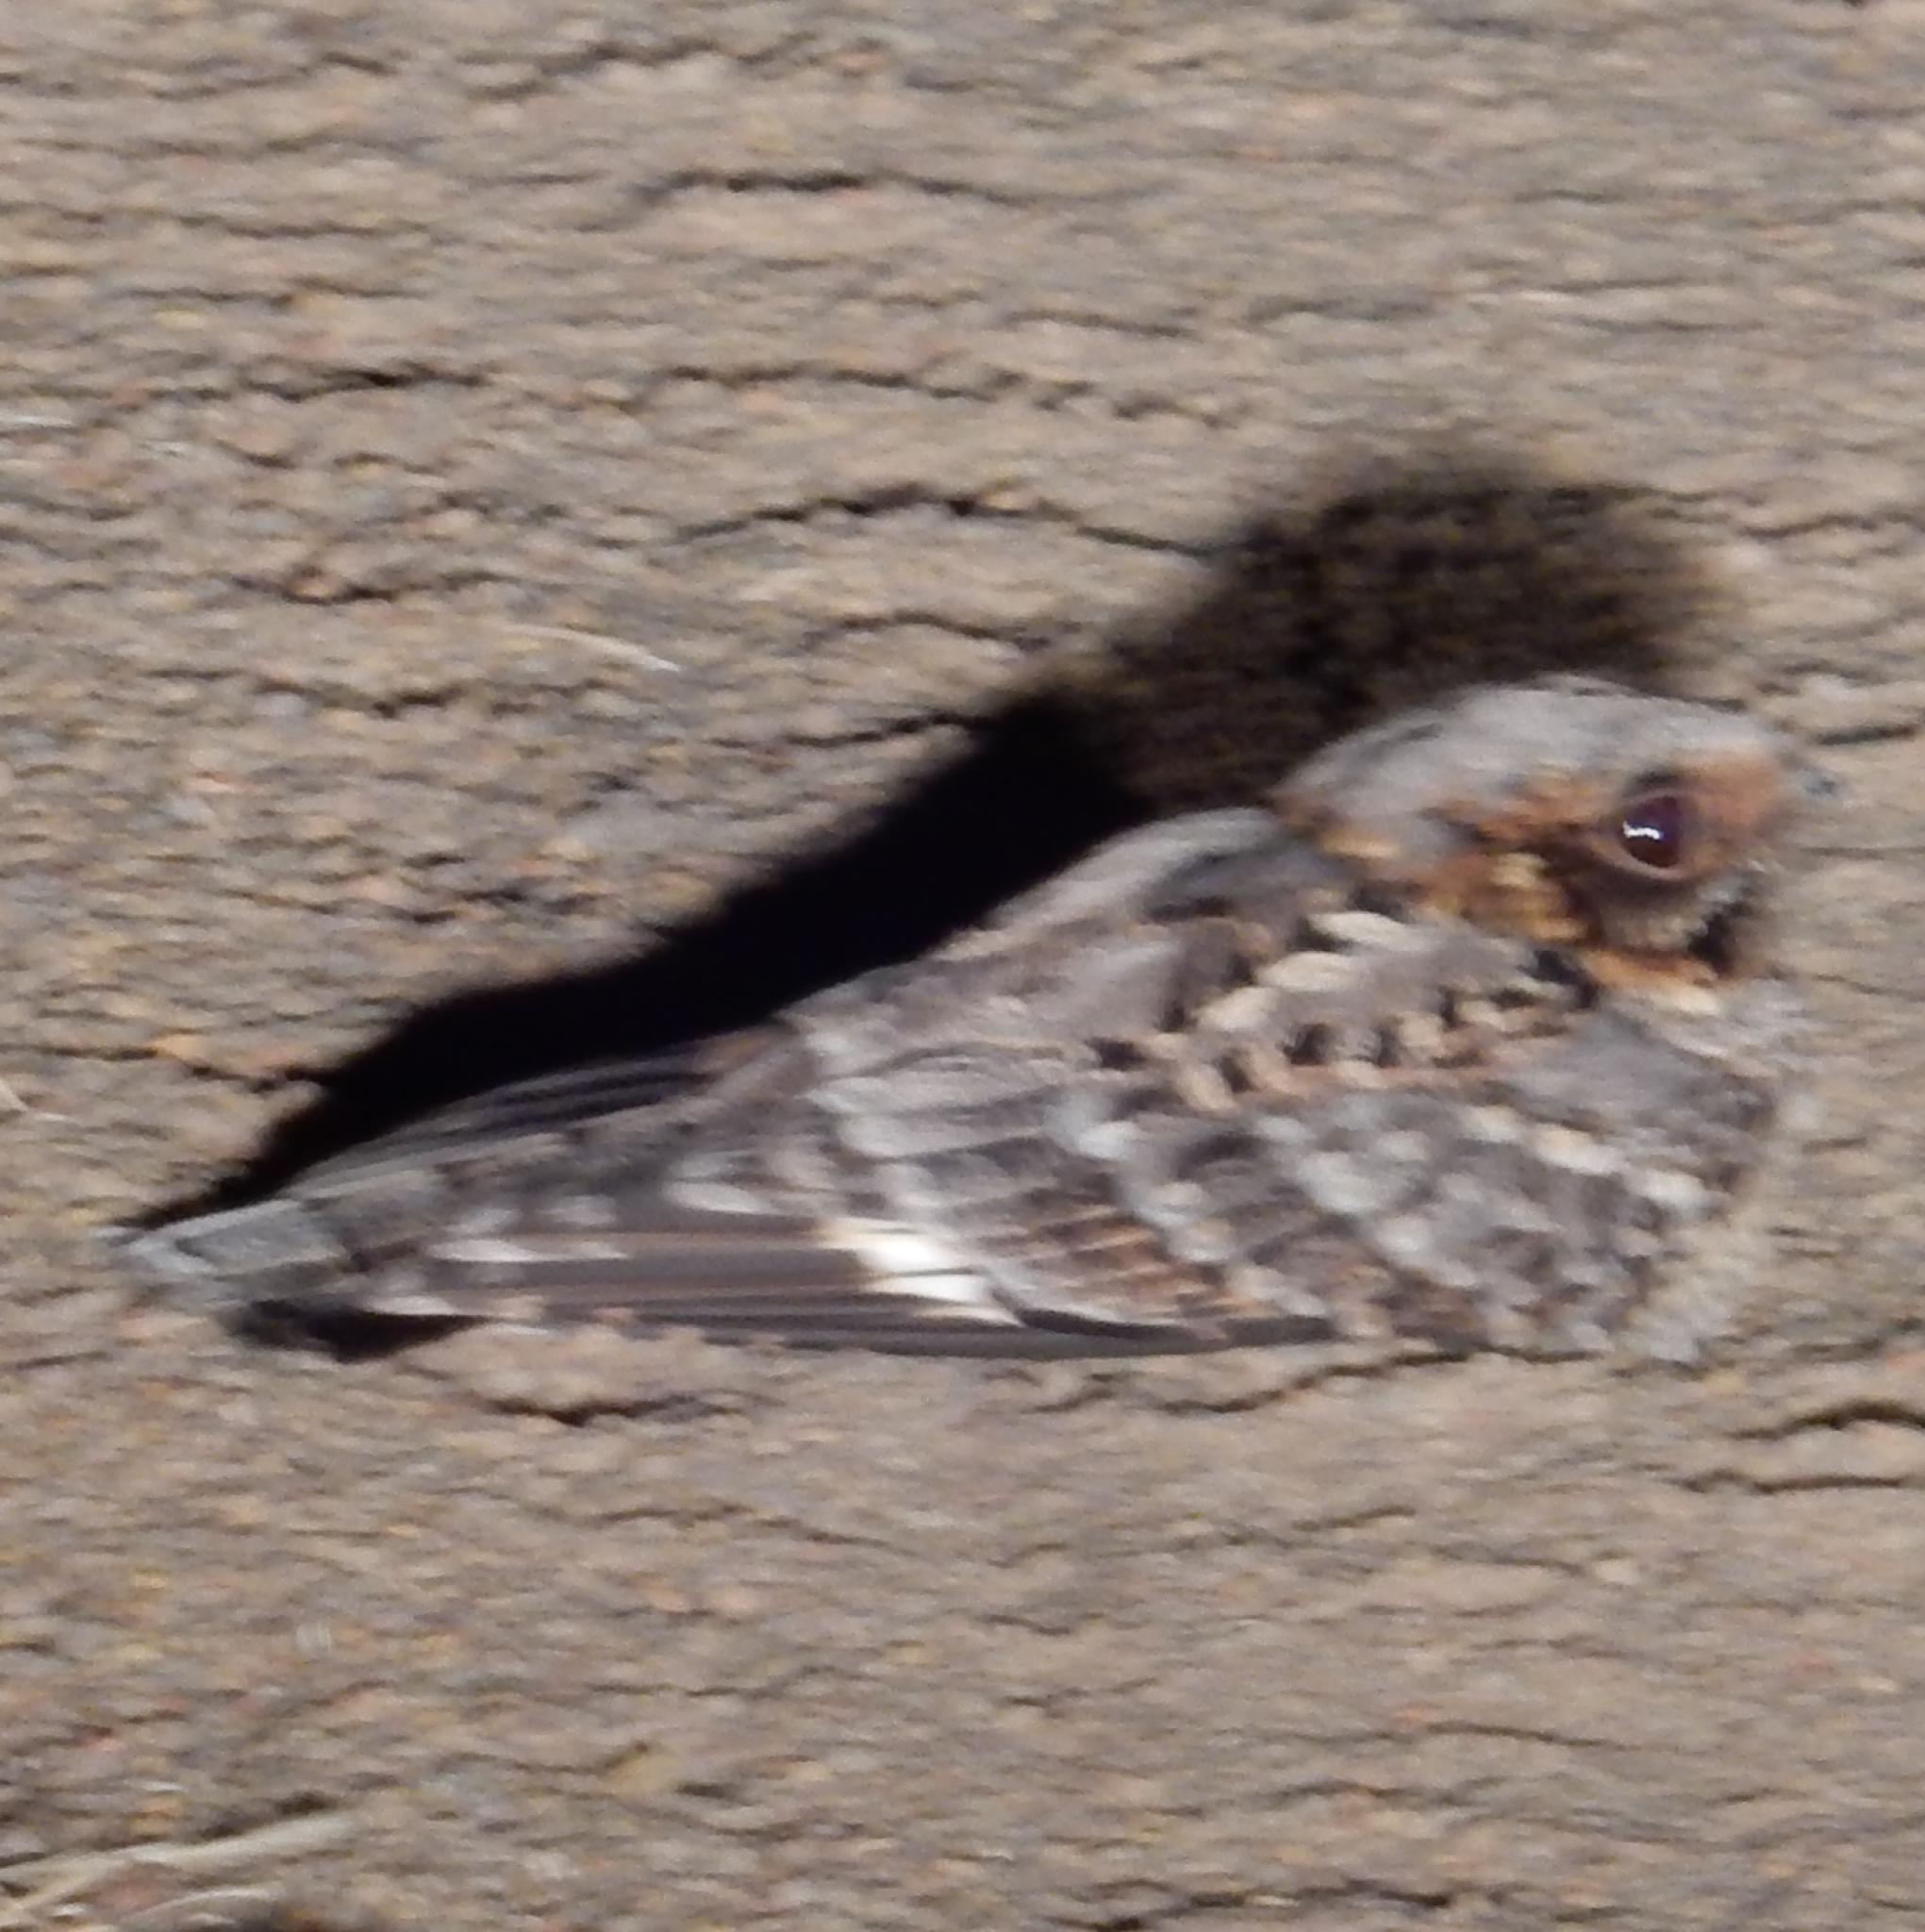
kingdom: Animalia
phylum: Chordata
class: Aves
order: Caprimulgiformes
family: Caprimulgidae
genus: Caprimulgus
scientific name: Caprimulgus pectoralis
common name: Fiery-necked nightjar
